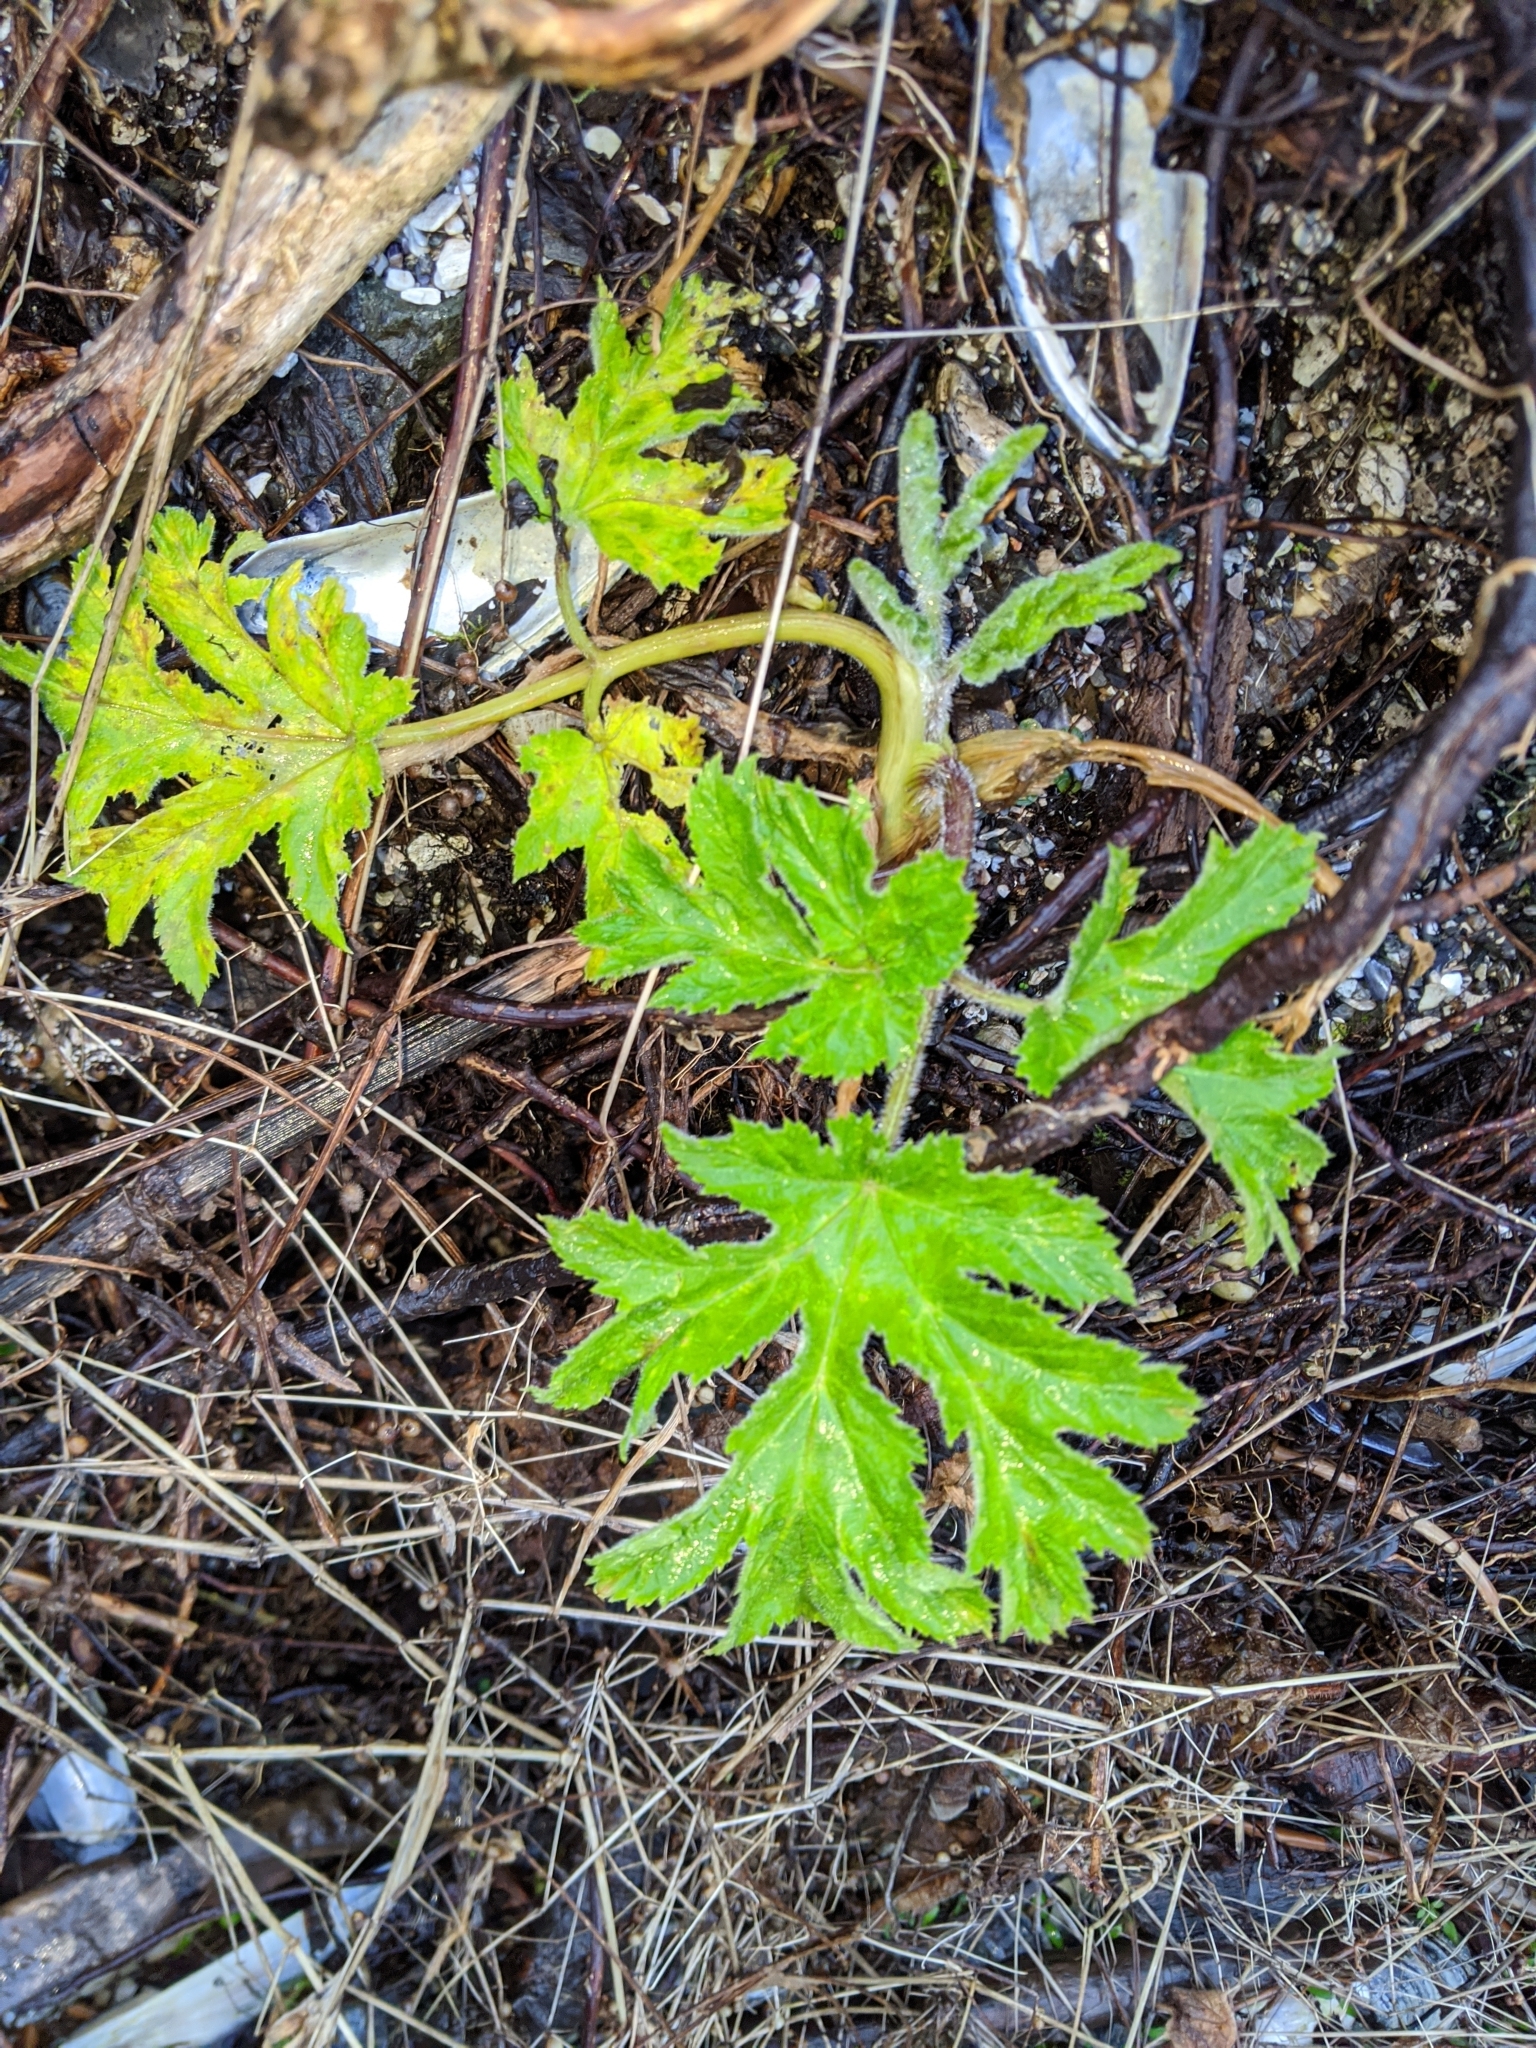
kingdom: Plantae
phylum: Tracheophyta
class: Magnoliopsida
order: Apiales
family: Apiaceae
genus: Heracleum
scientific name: Heracleum maximum
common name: American cow parsnip
